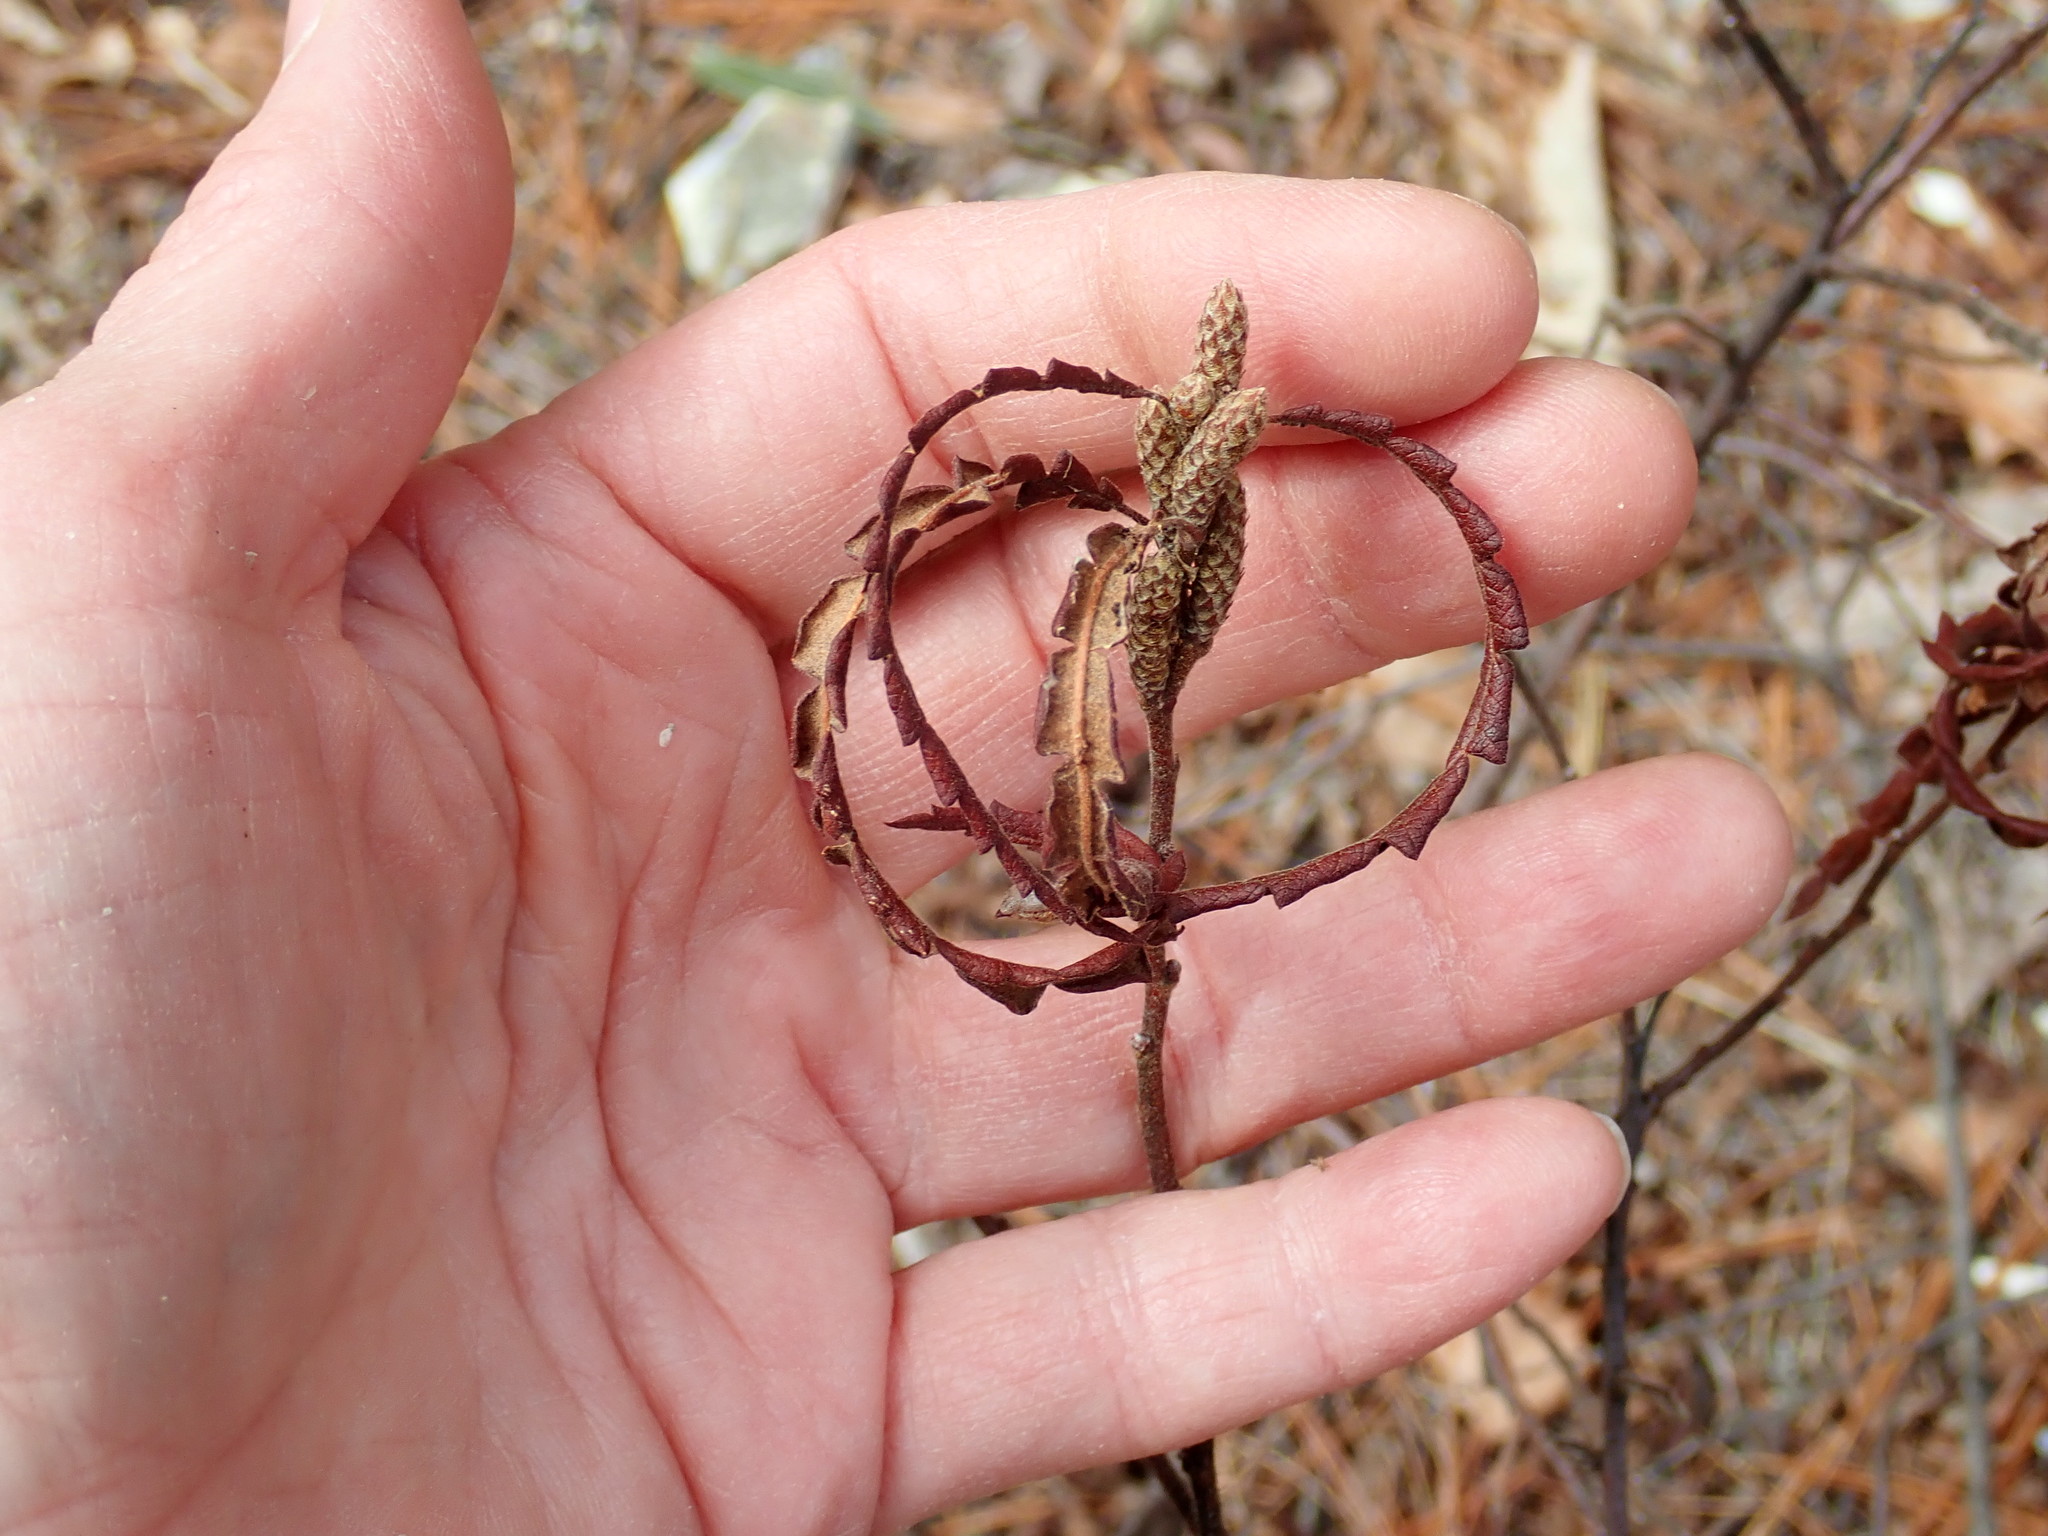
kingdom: Plantae
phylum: Tracheophyta
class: Magnoliopsida
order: Fagales
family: Myricaceae
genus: Comptonia
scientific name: Comptonia peregrina
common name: Sweet-fern
